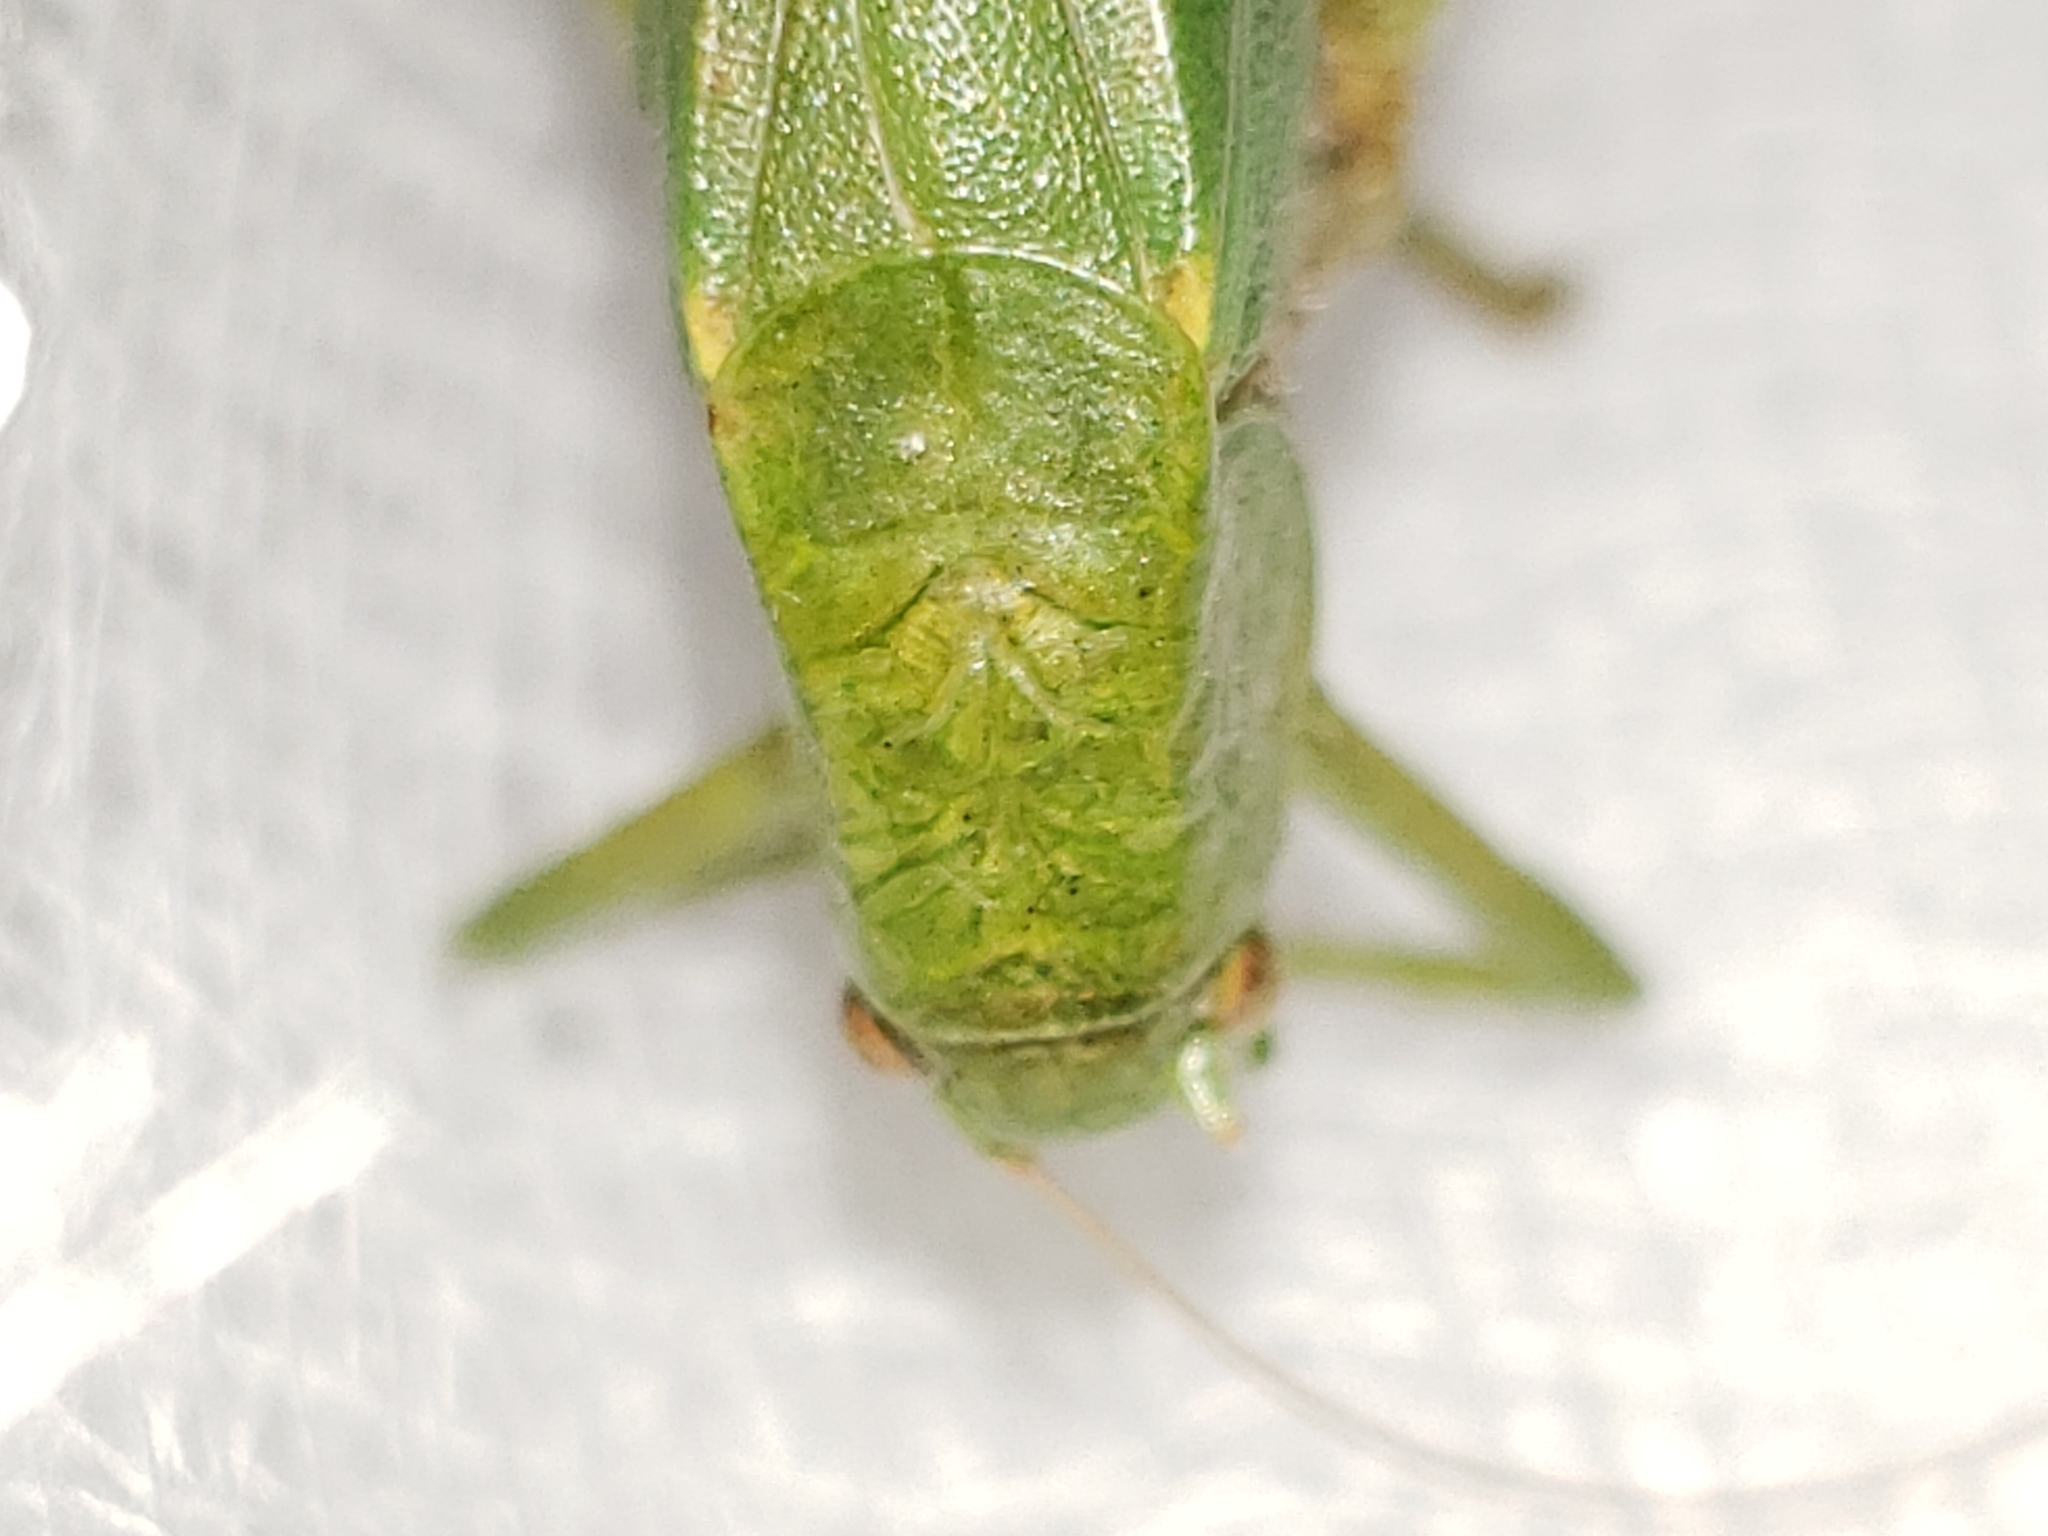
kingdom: Animalia
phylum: Arthropoda
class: Insecta
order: Orthoptera
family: Tettigoniidae
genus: Amblycorypha
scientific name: Amblycorypha floridana
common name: Florida false katydid
